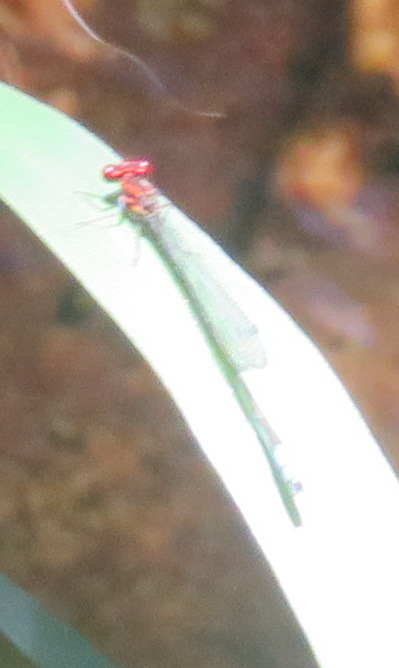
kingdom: Animalia
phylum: Arthropoda
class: Insecta
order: Odonata
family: Coenagrionidae
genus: Pseudagrion
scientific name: Pseudagrion hageni
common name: Painted sprite
